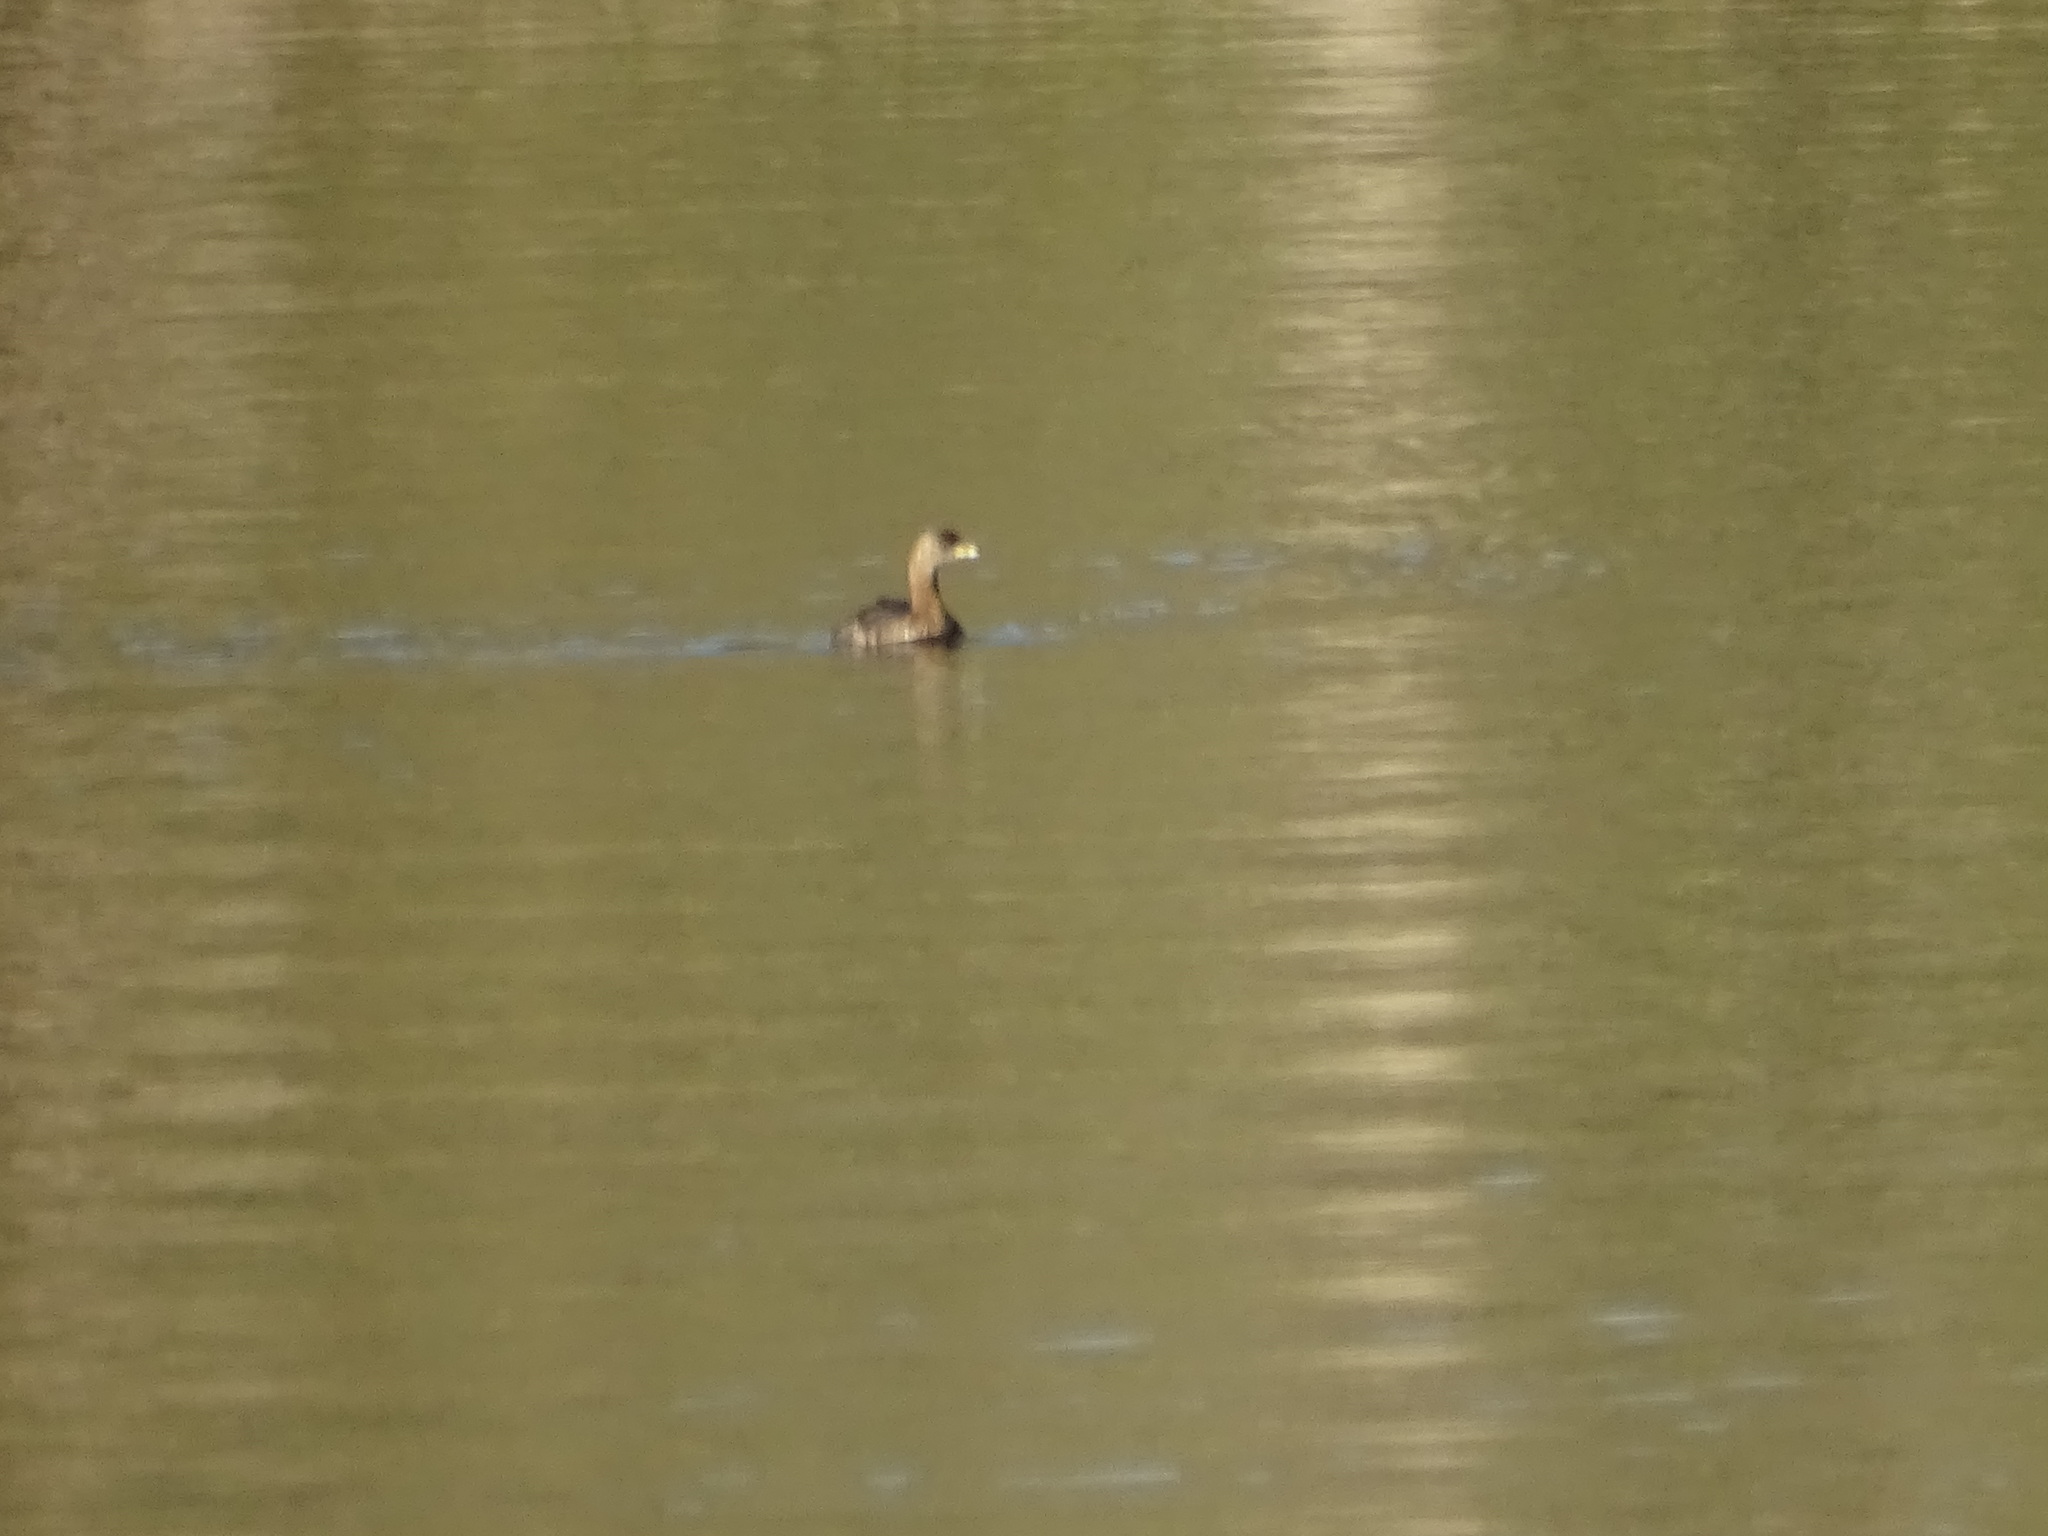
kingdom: Animalia
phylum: Chordata
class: Aves
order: Podicipediformes
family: Podicipedidae
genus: Podilymbus
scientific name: Podilymbus podiceps
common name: Pied-billed grebe
